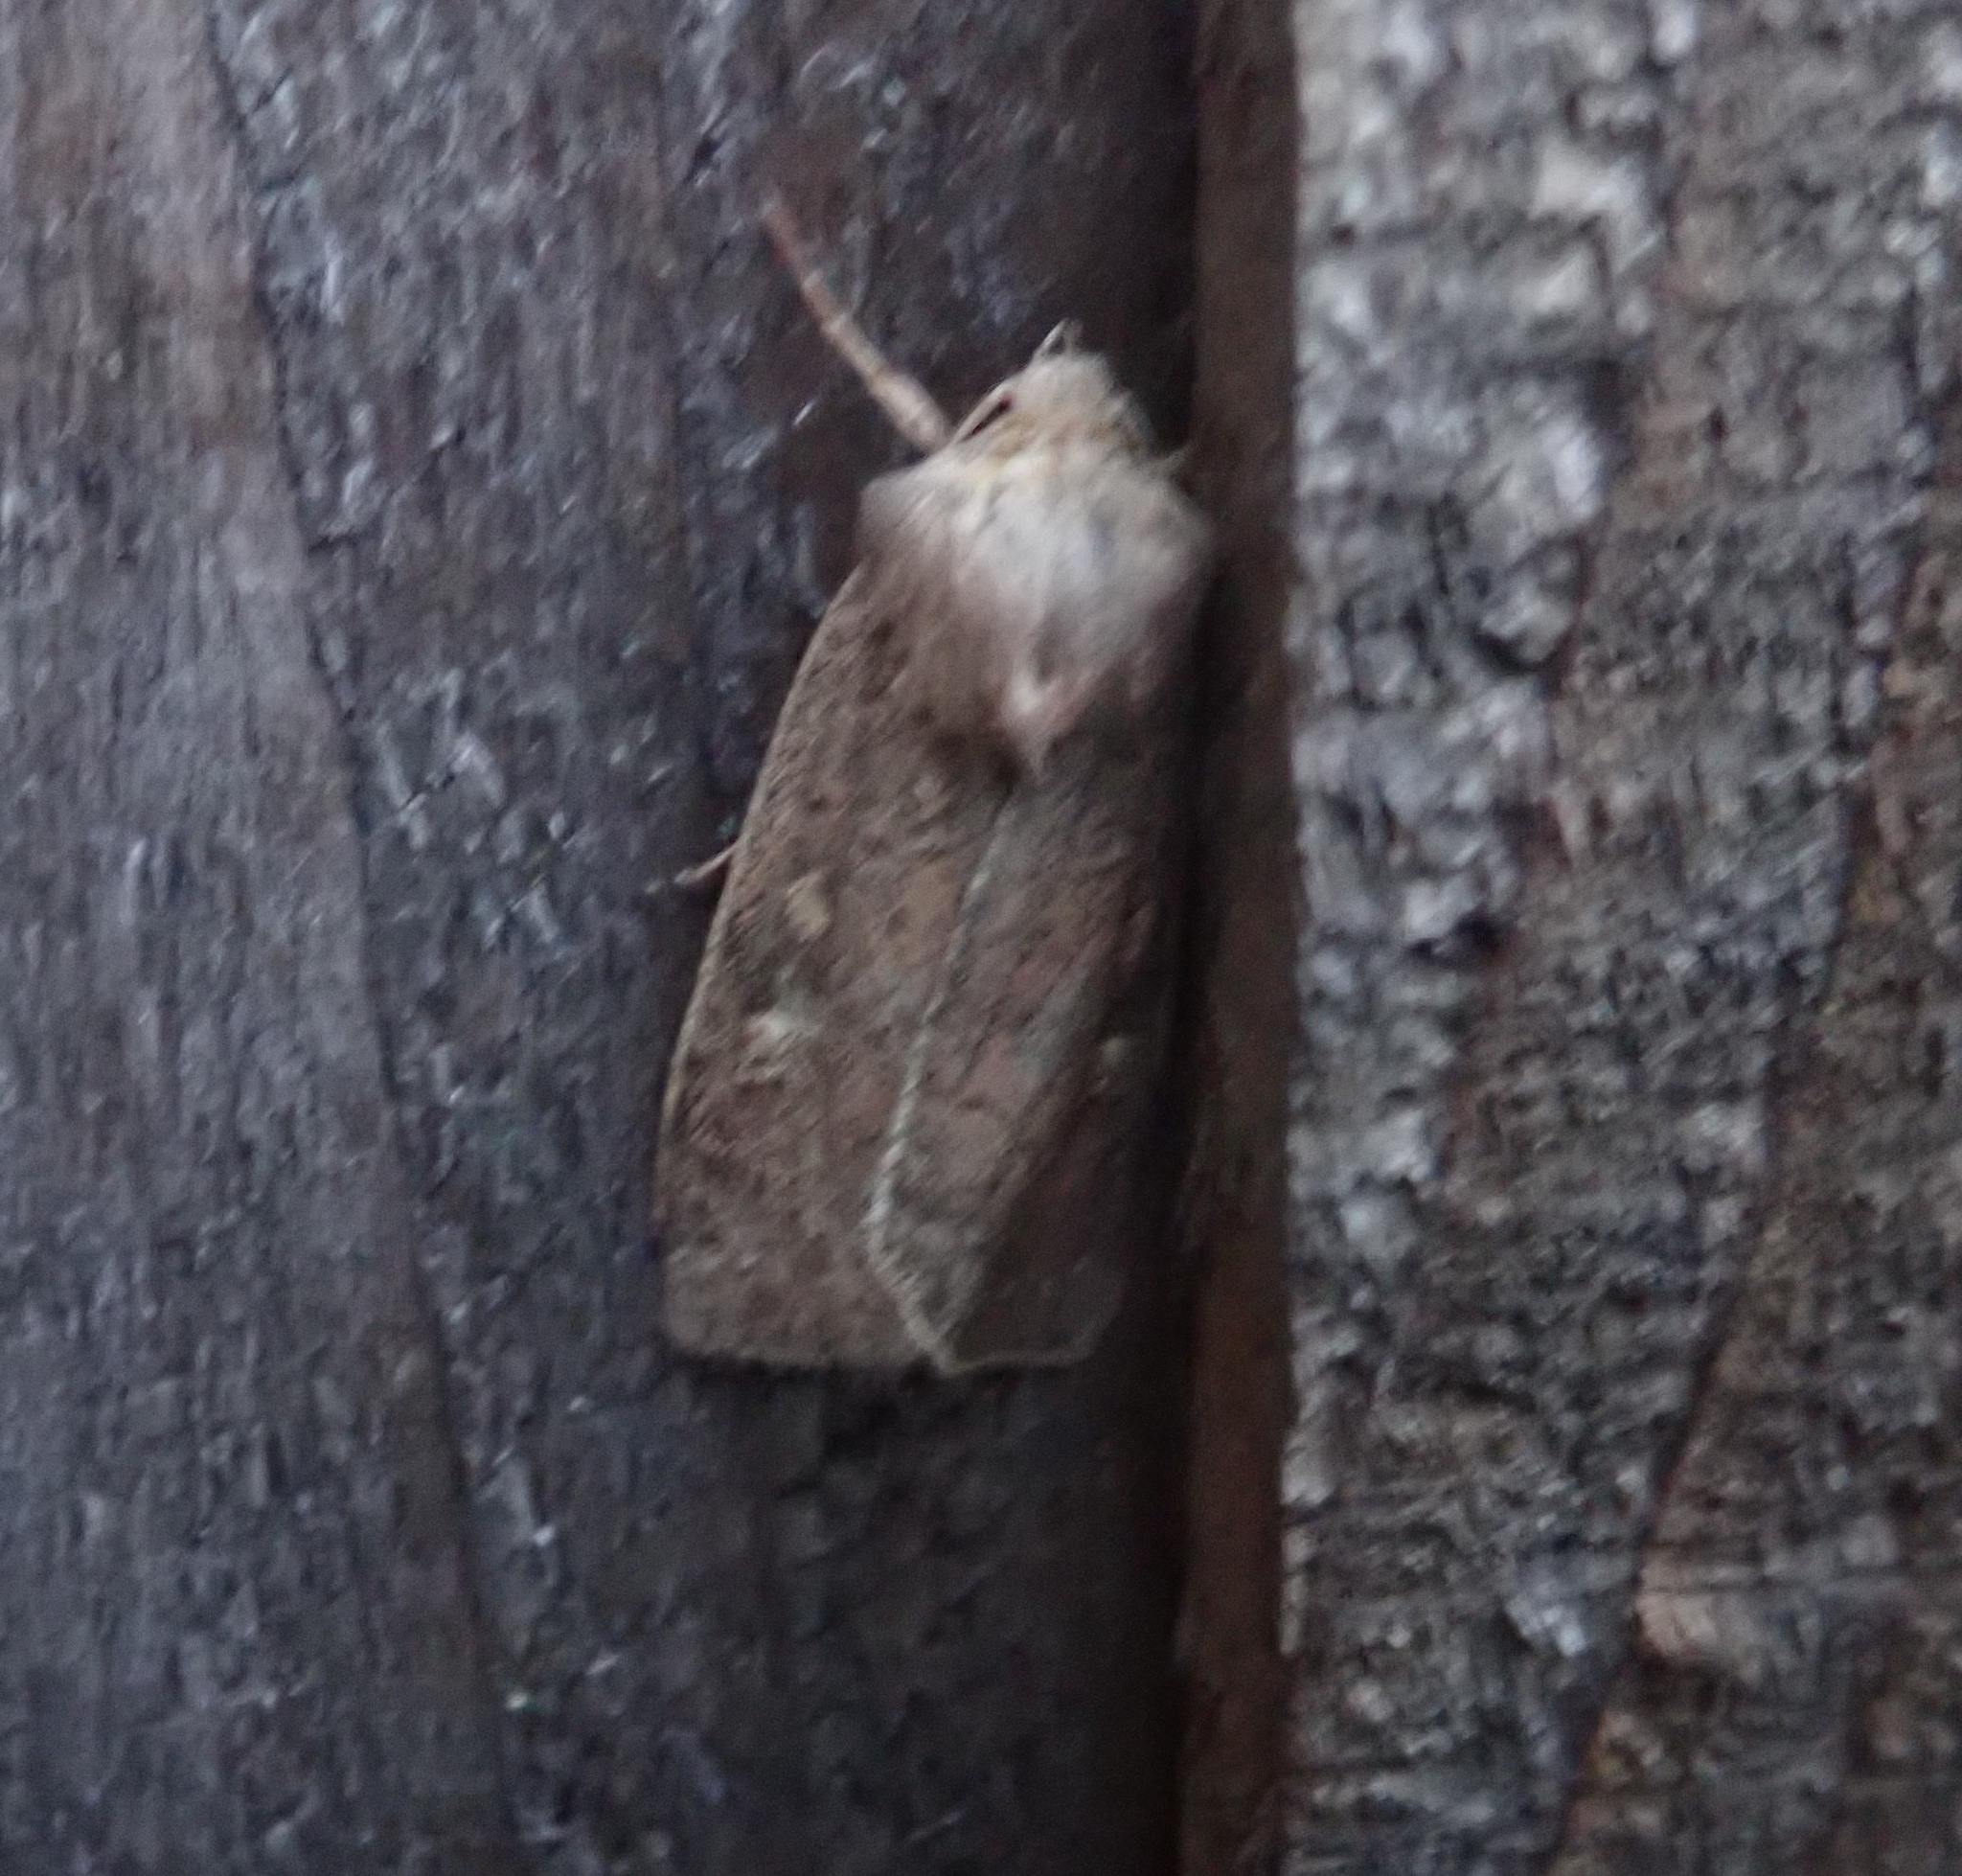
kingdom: Animalia
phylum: Arthropoda
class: Insecta
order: Lepidoptera
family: Noctuidae
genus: Xestia
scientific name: Xestia xanthographa
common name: Square-spot rustic
